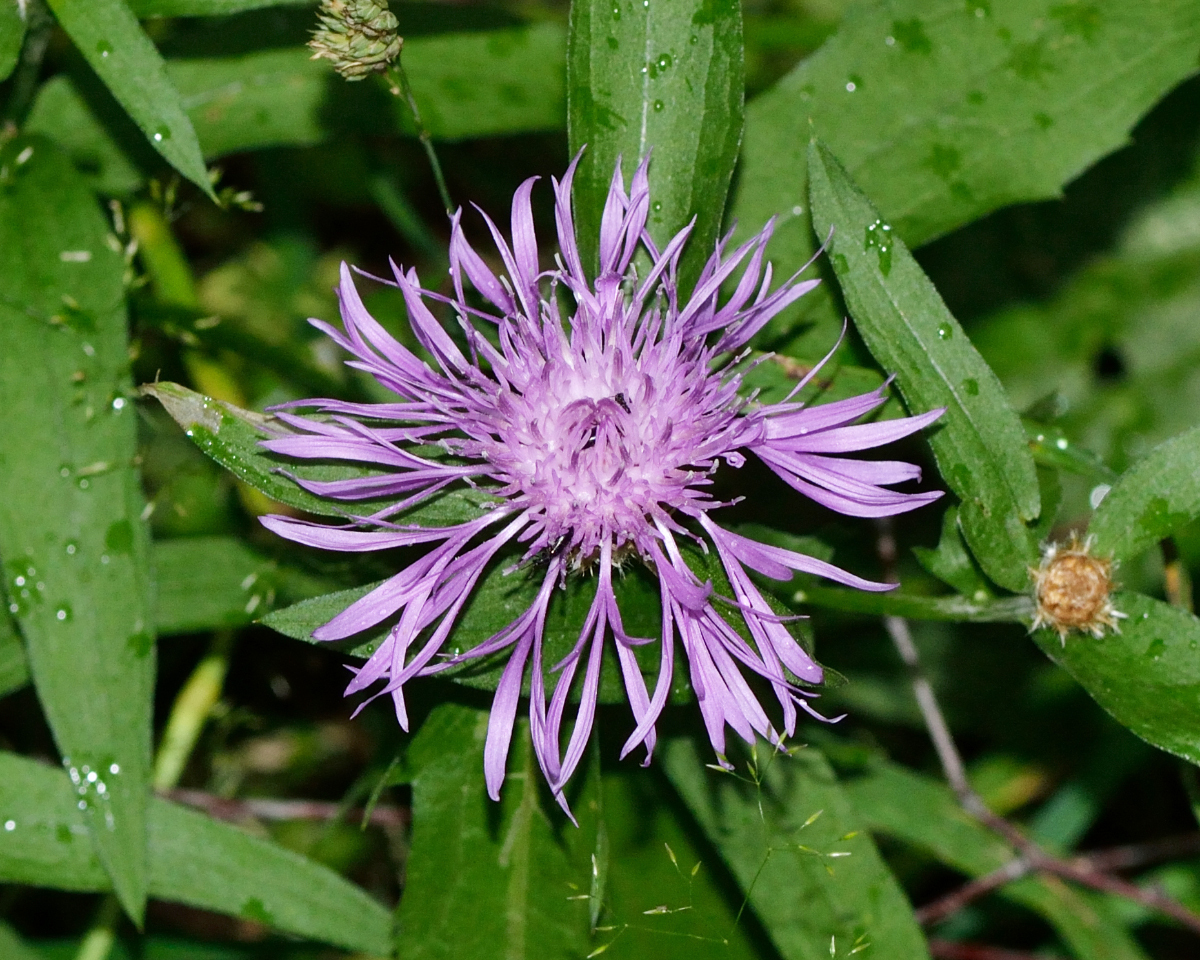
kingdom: Plantae
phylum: Tracheophyta
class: Magnoliopsida
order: Asterales
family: Asteraceae
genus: Centaurea
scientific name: Centaurea jacea
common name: Brown knapweed
